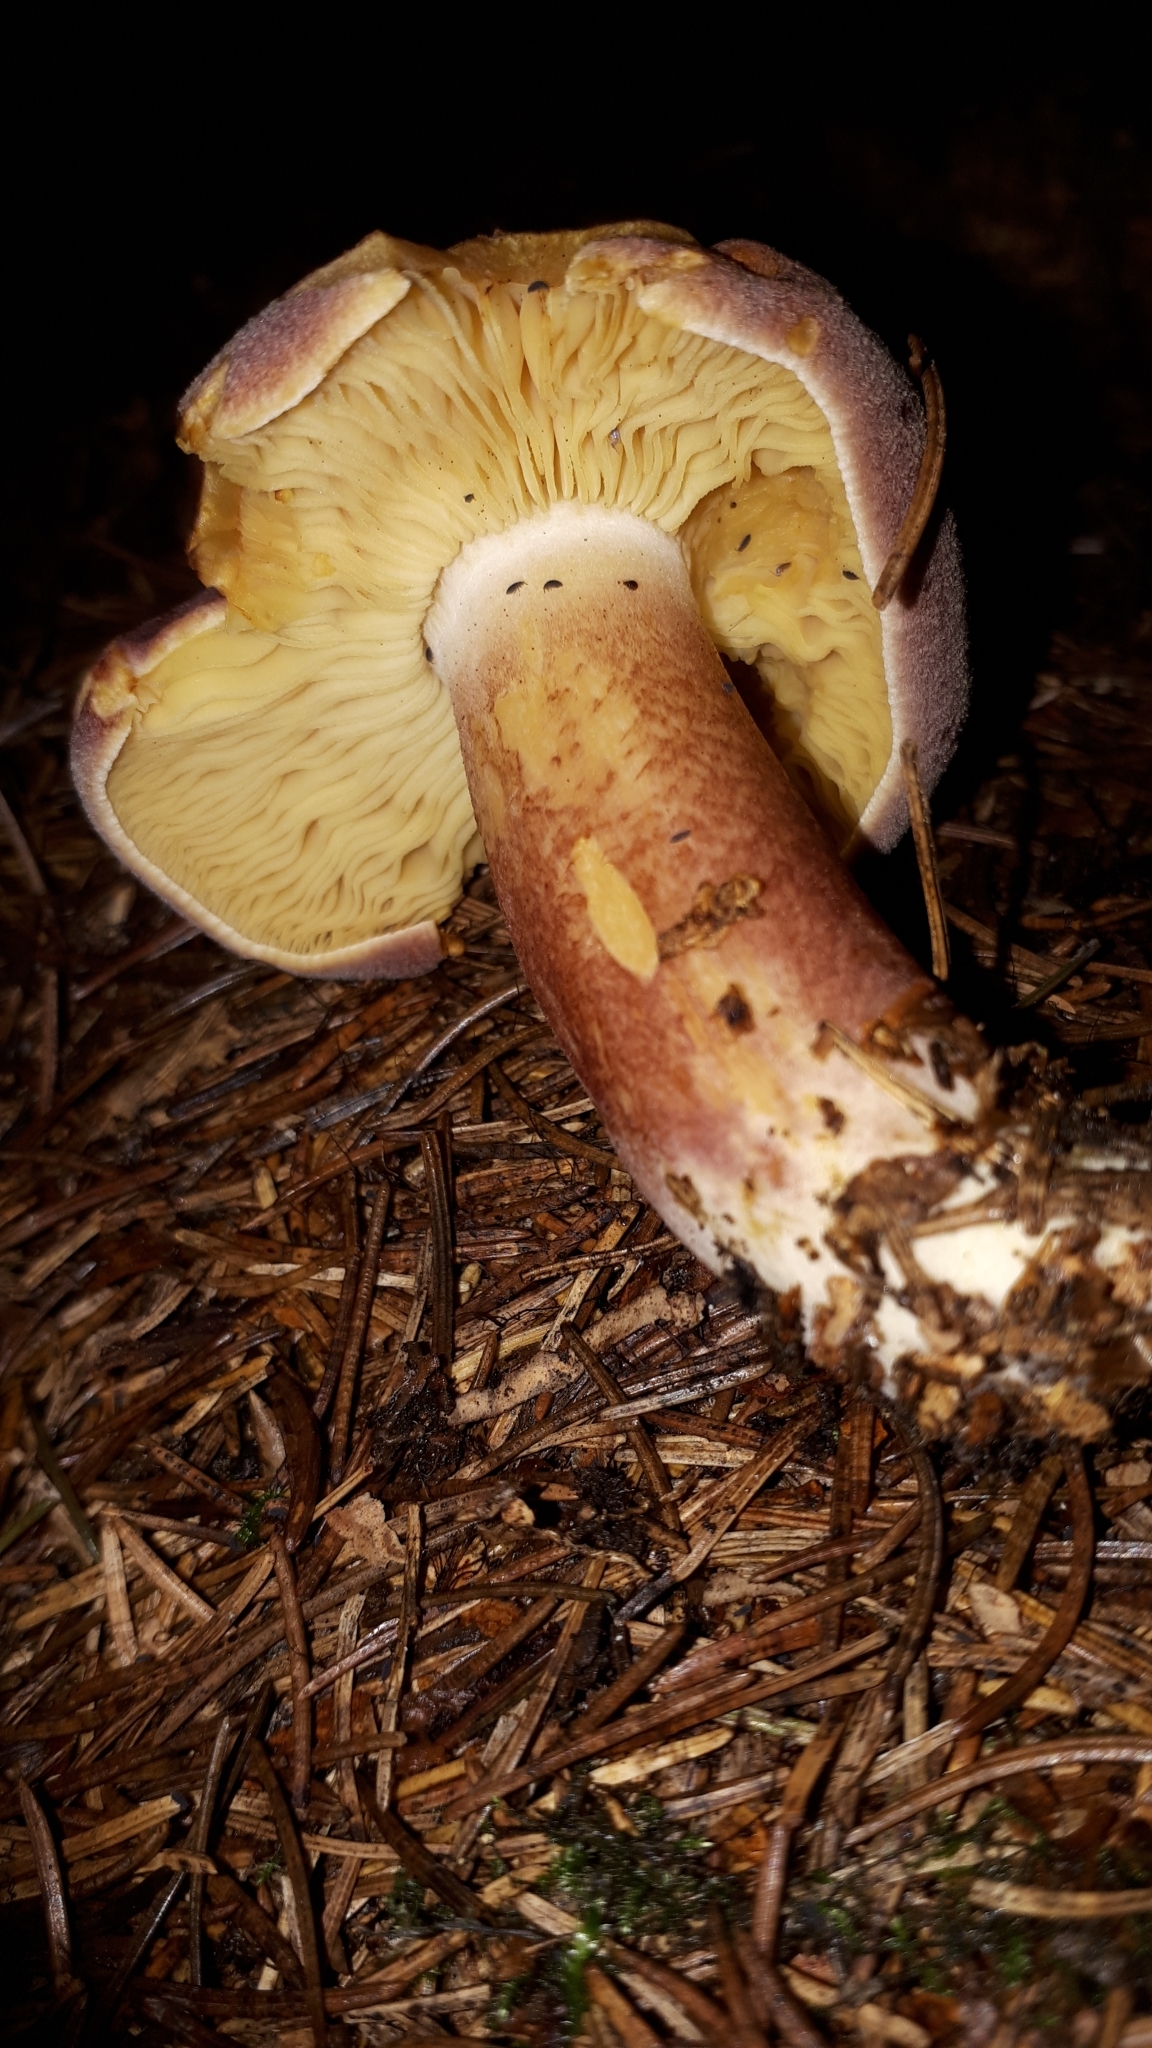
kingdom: Fungi
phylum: Basidiomycota
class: Agaricomycetes
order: Agaricales
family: Tricholomataceae
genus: Tricholomopsis
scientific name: Tricholomopsis rutilans
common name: Plums and custard
